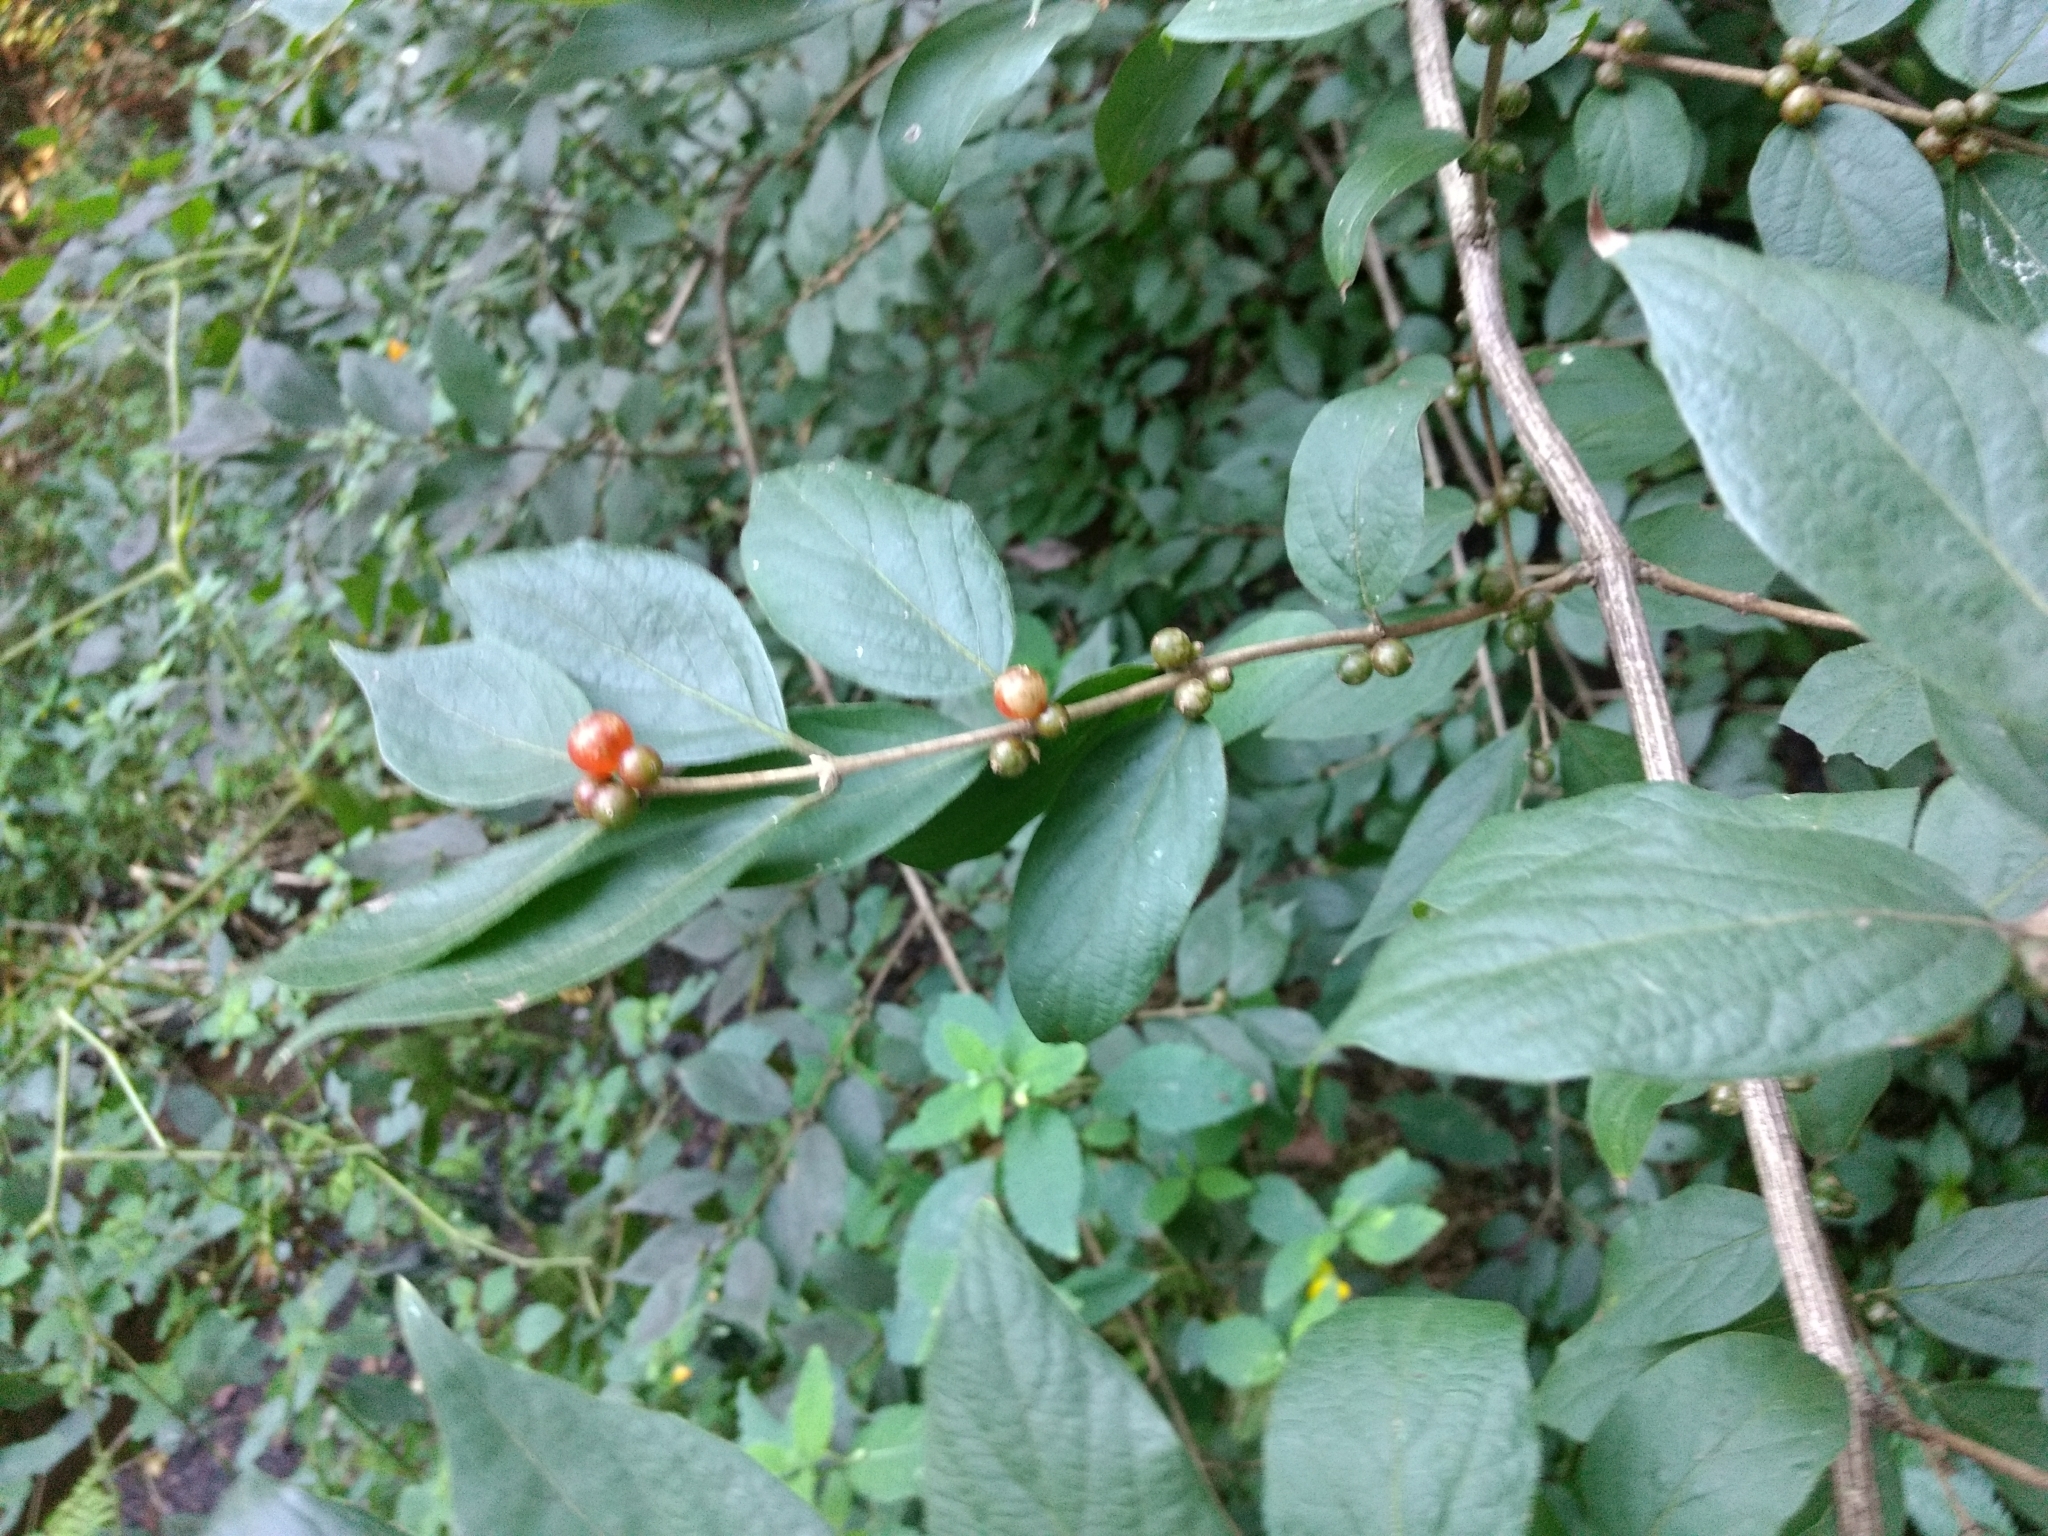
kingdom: Plantae
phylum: Tracheophyta
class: Magnoliopsida
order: Dipsacales
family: Caprifoliaceae
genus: Lonicera
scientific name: Lonicera maackii
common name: Amur honeysuckle
